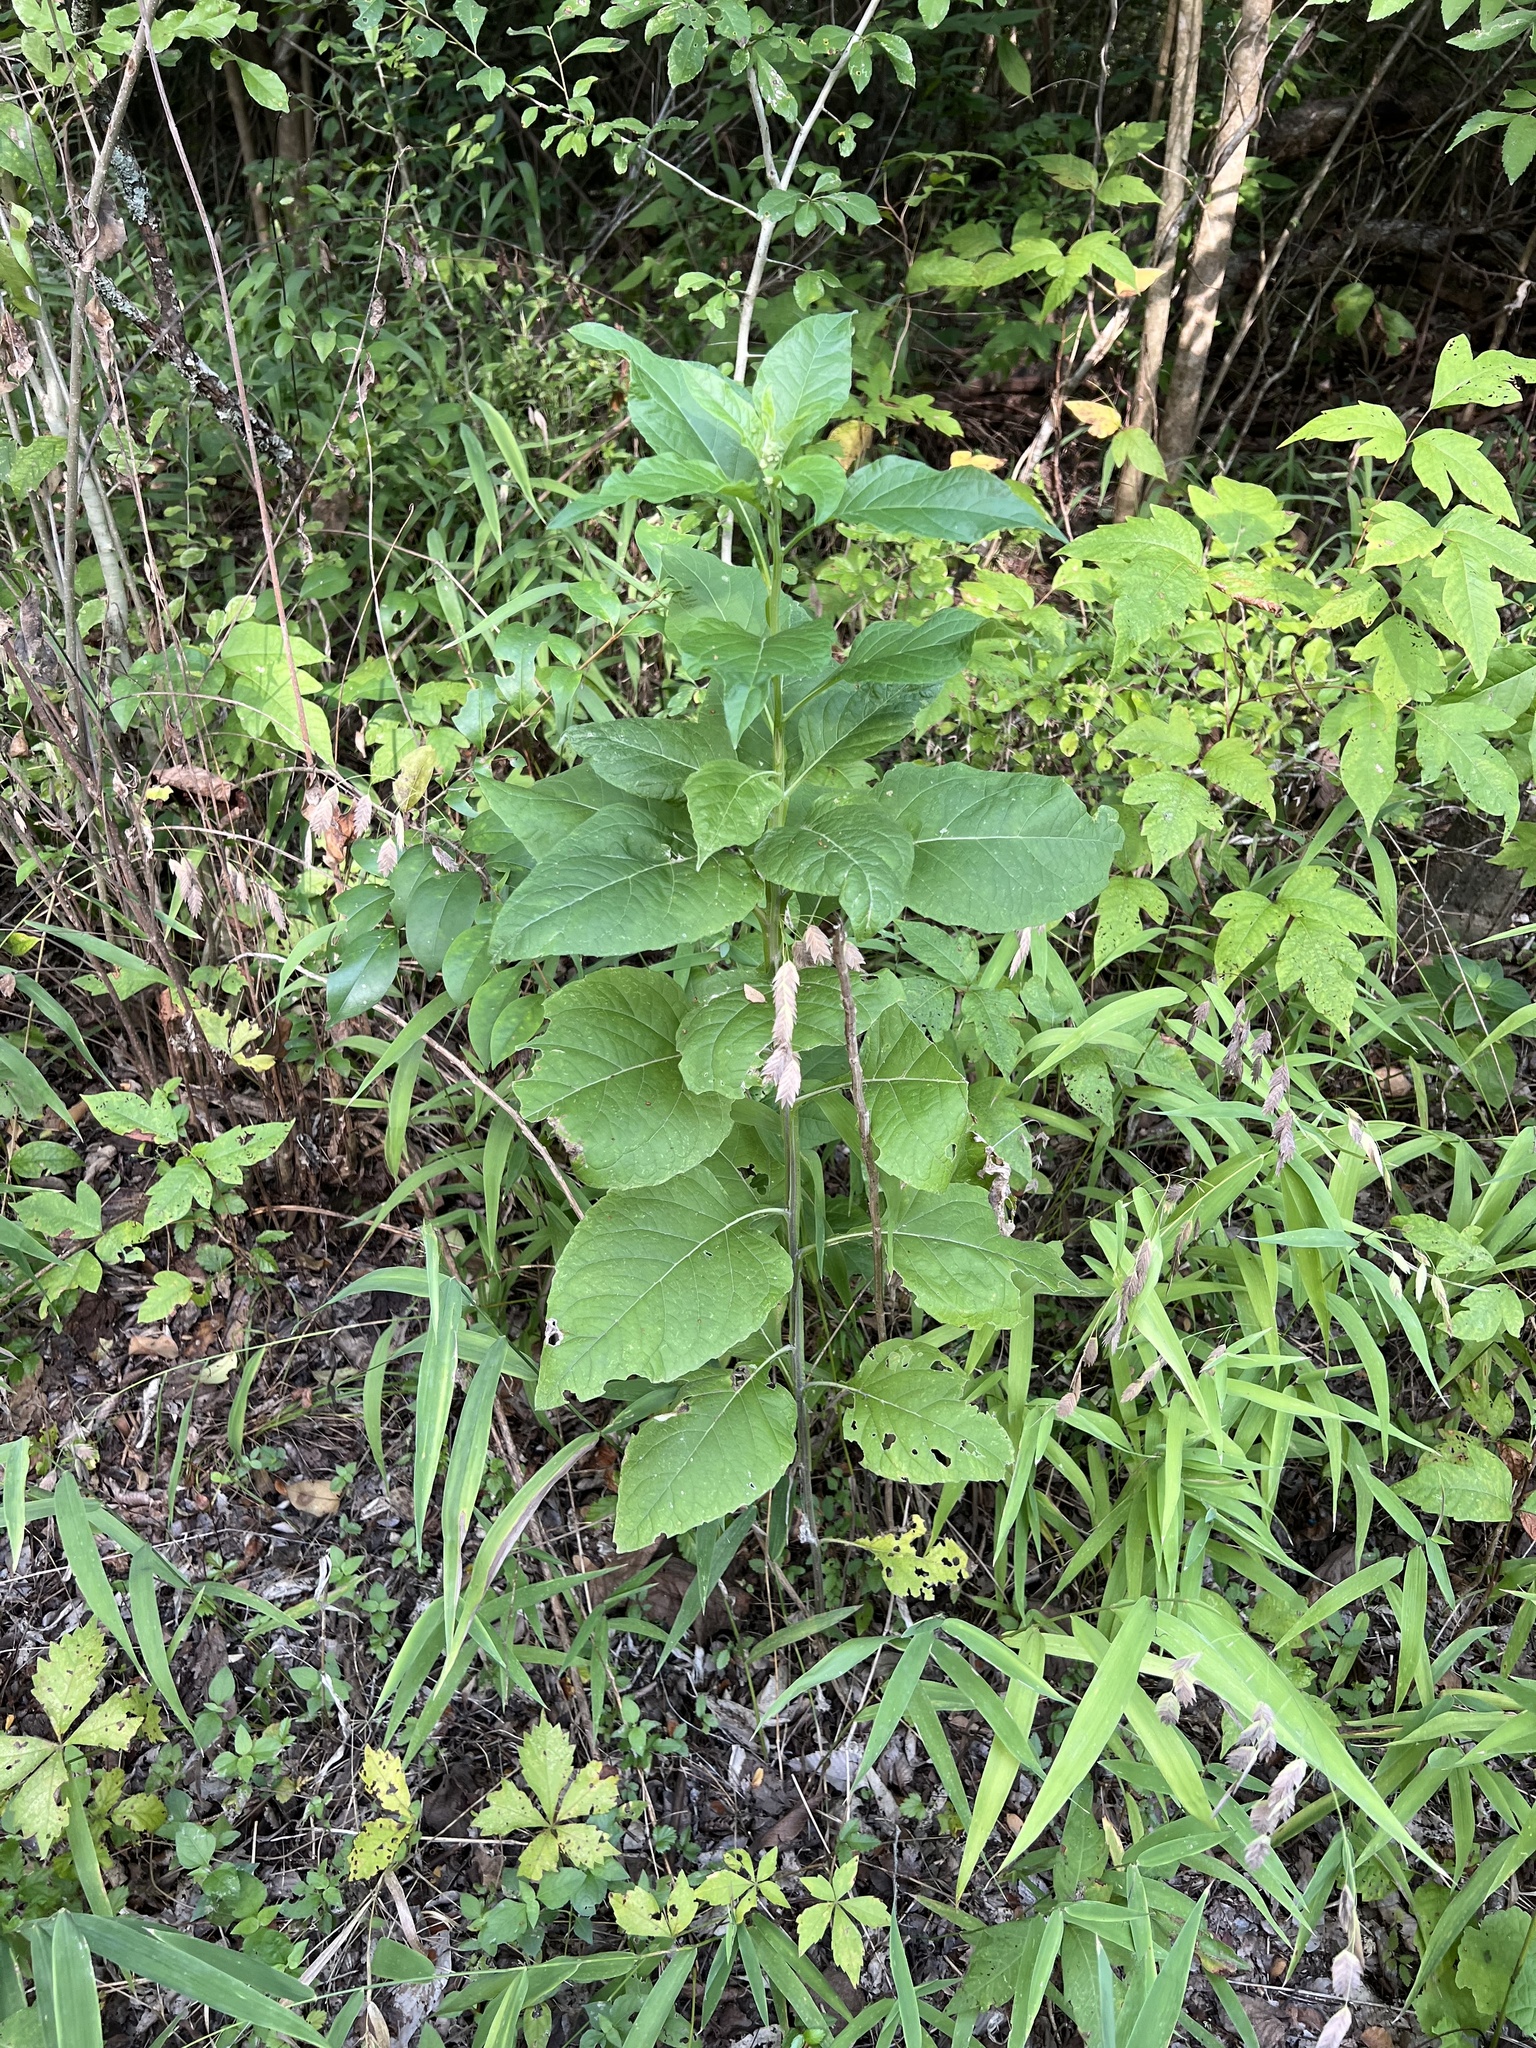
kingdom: Plantae
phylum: Tracheophyta
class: Magnoliopsida
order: Asterales
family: Asteraceae
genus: Verbesina
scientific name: Verbesina virginica
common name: Frostweed
